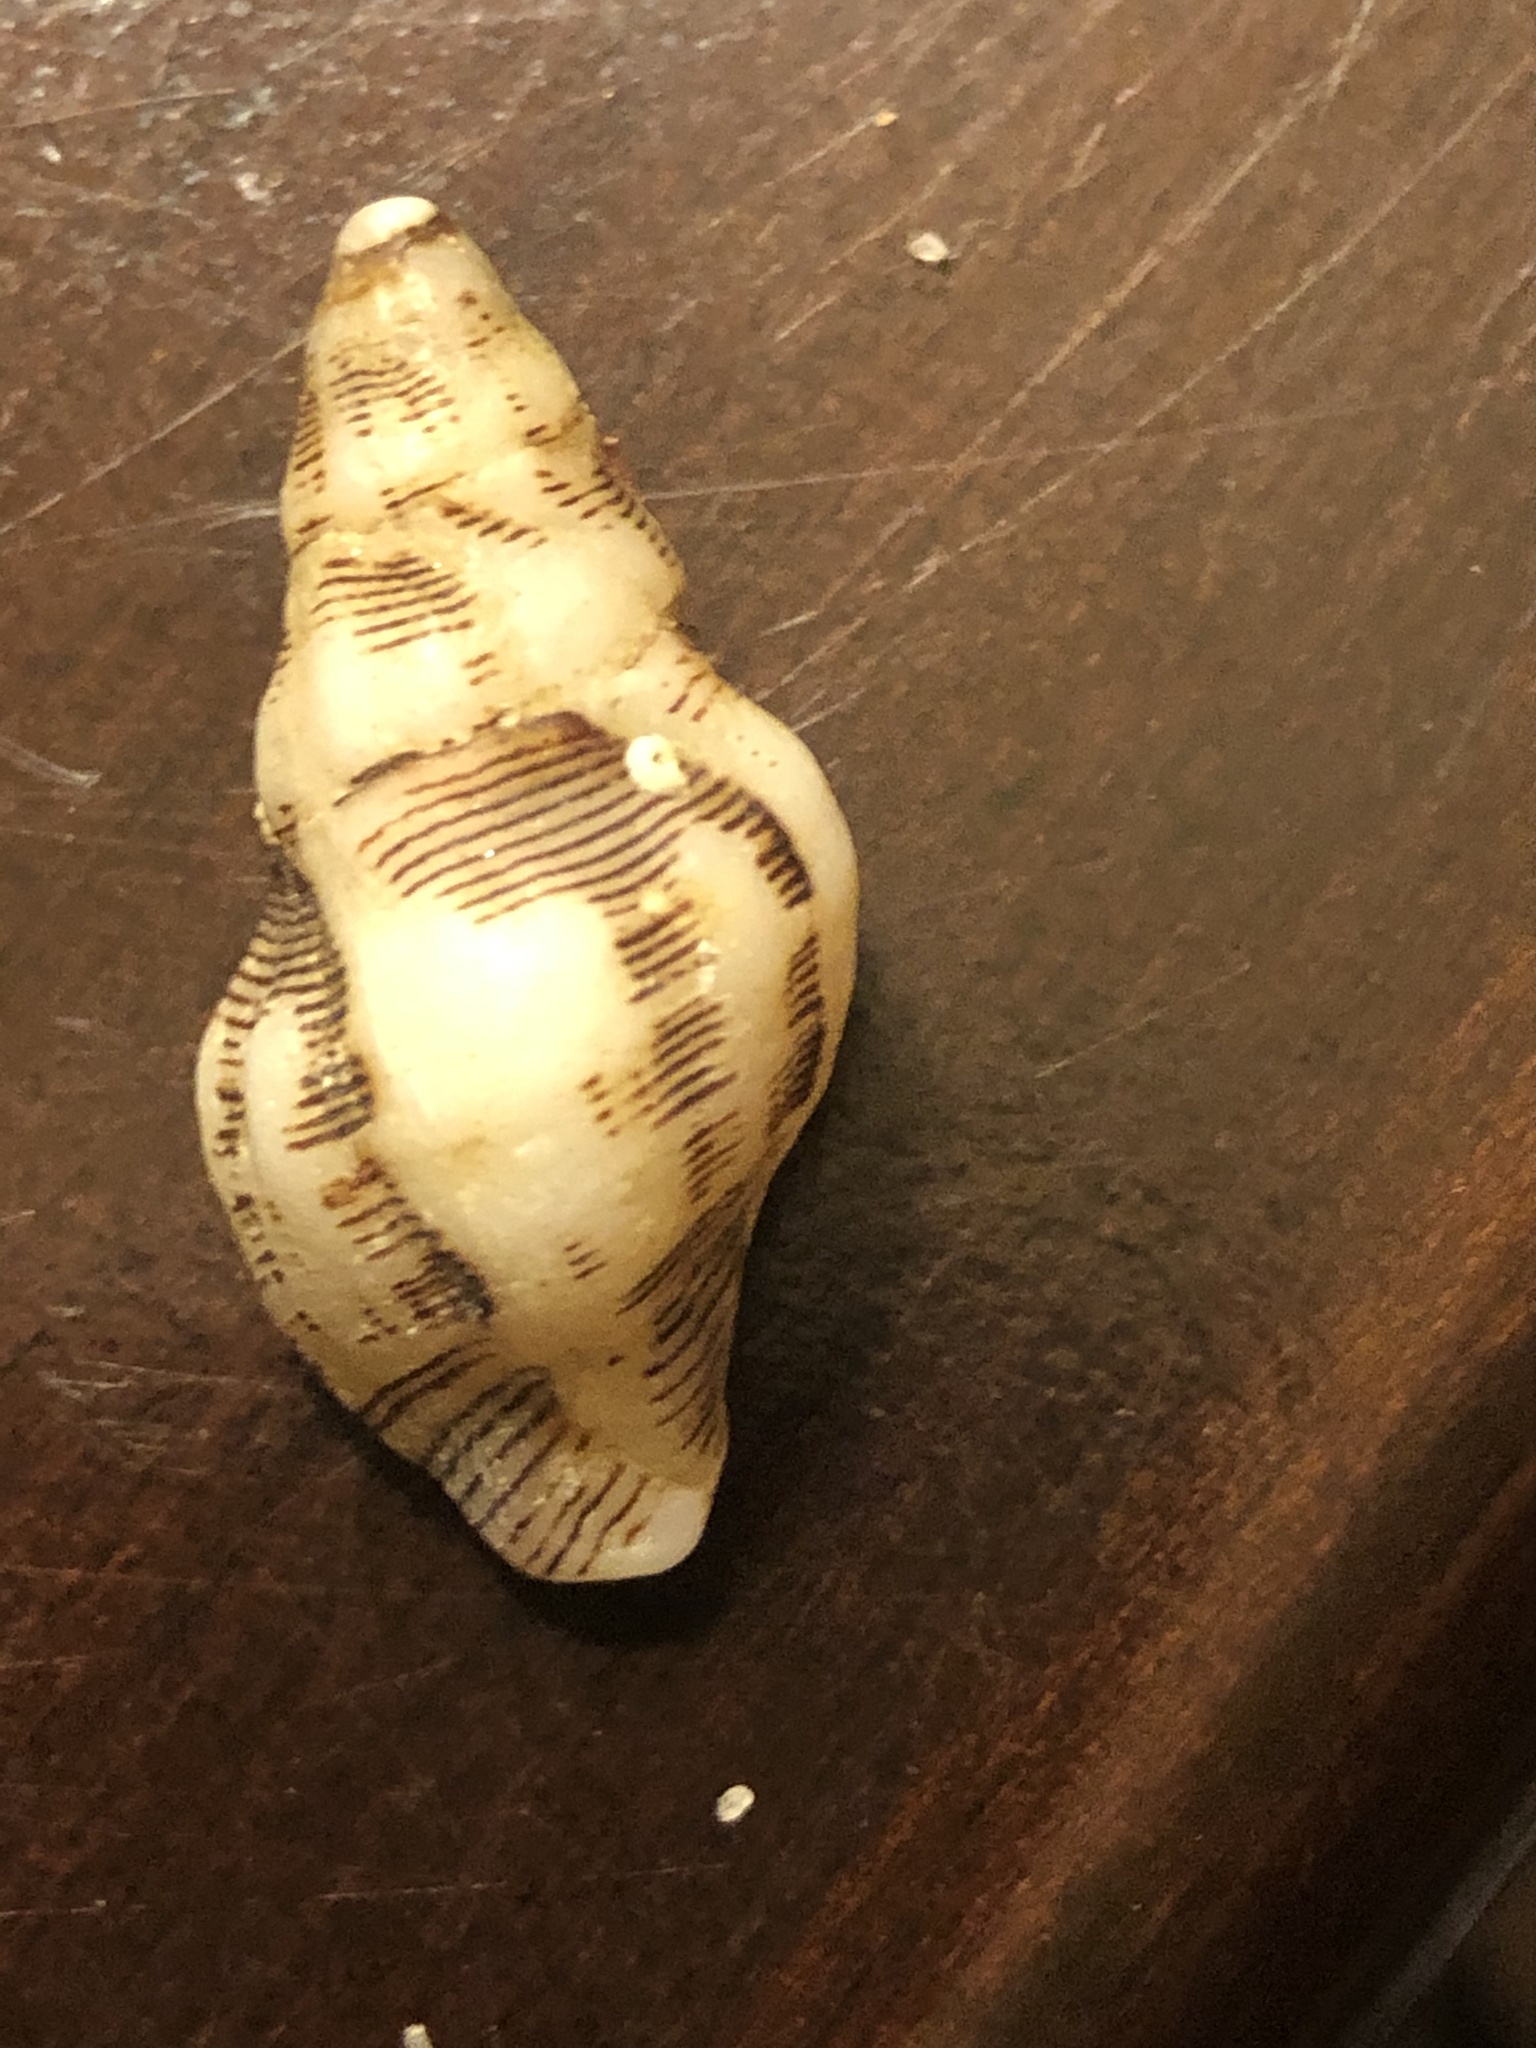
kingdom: Animalia
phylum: Mollusca
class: Gastropoda
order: Neogastropoda
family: Muricidae
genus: Roperia
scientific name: Roperia poulsoni
